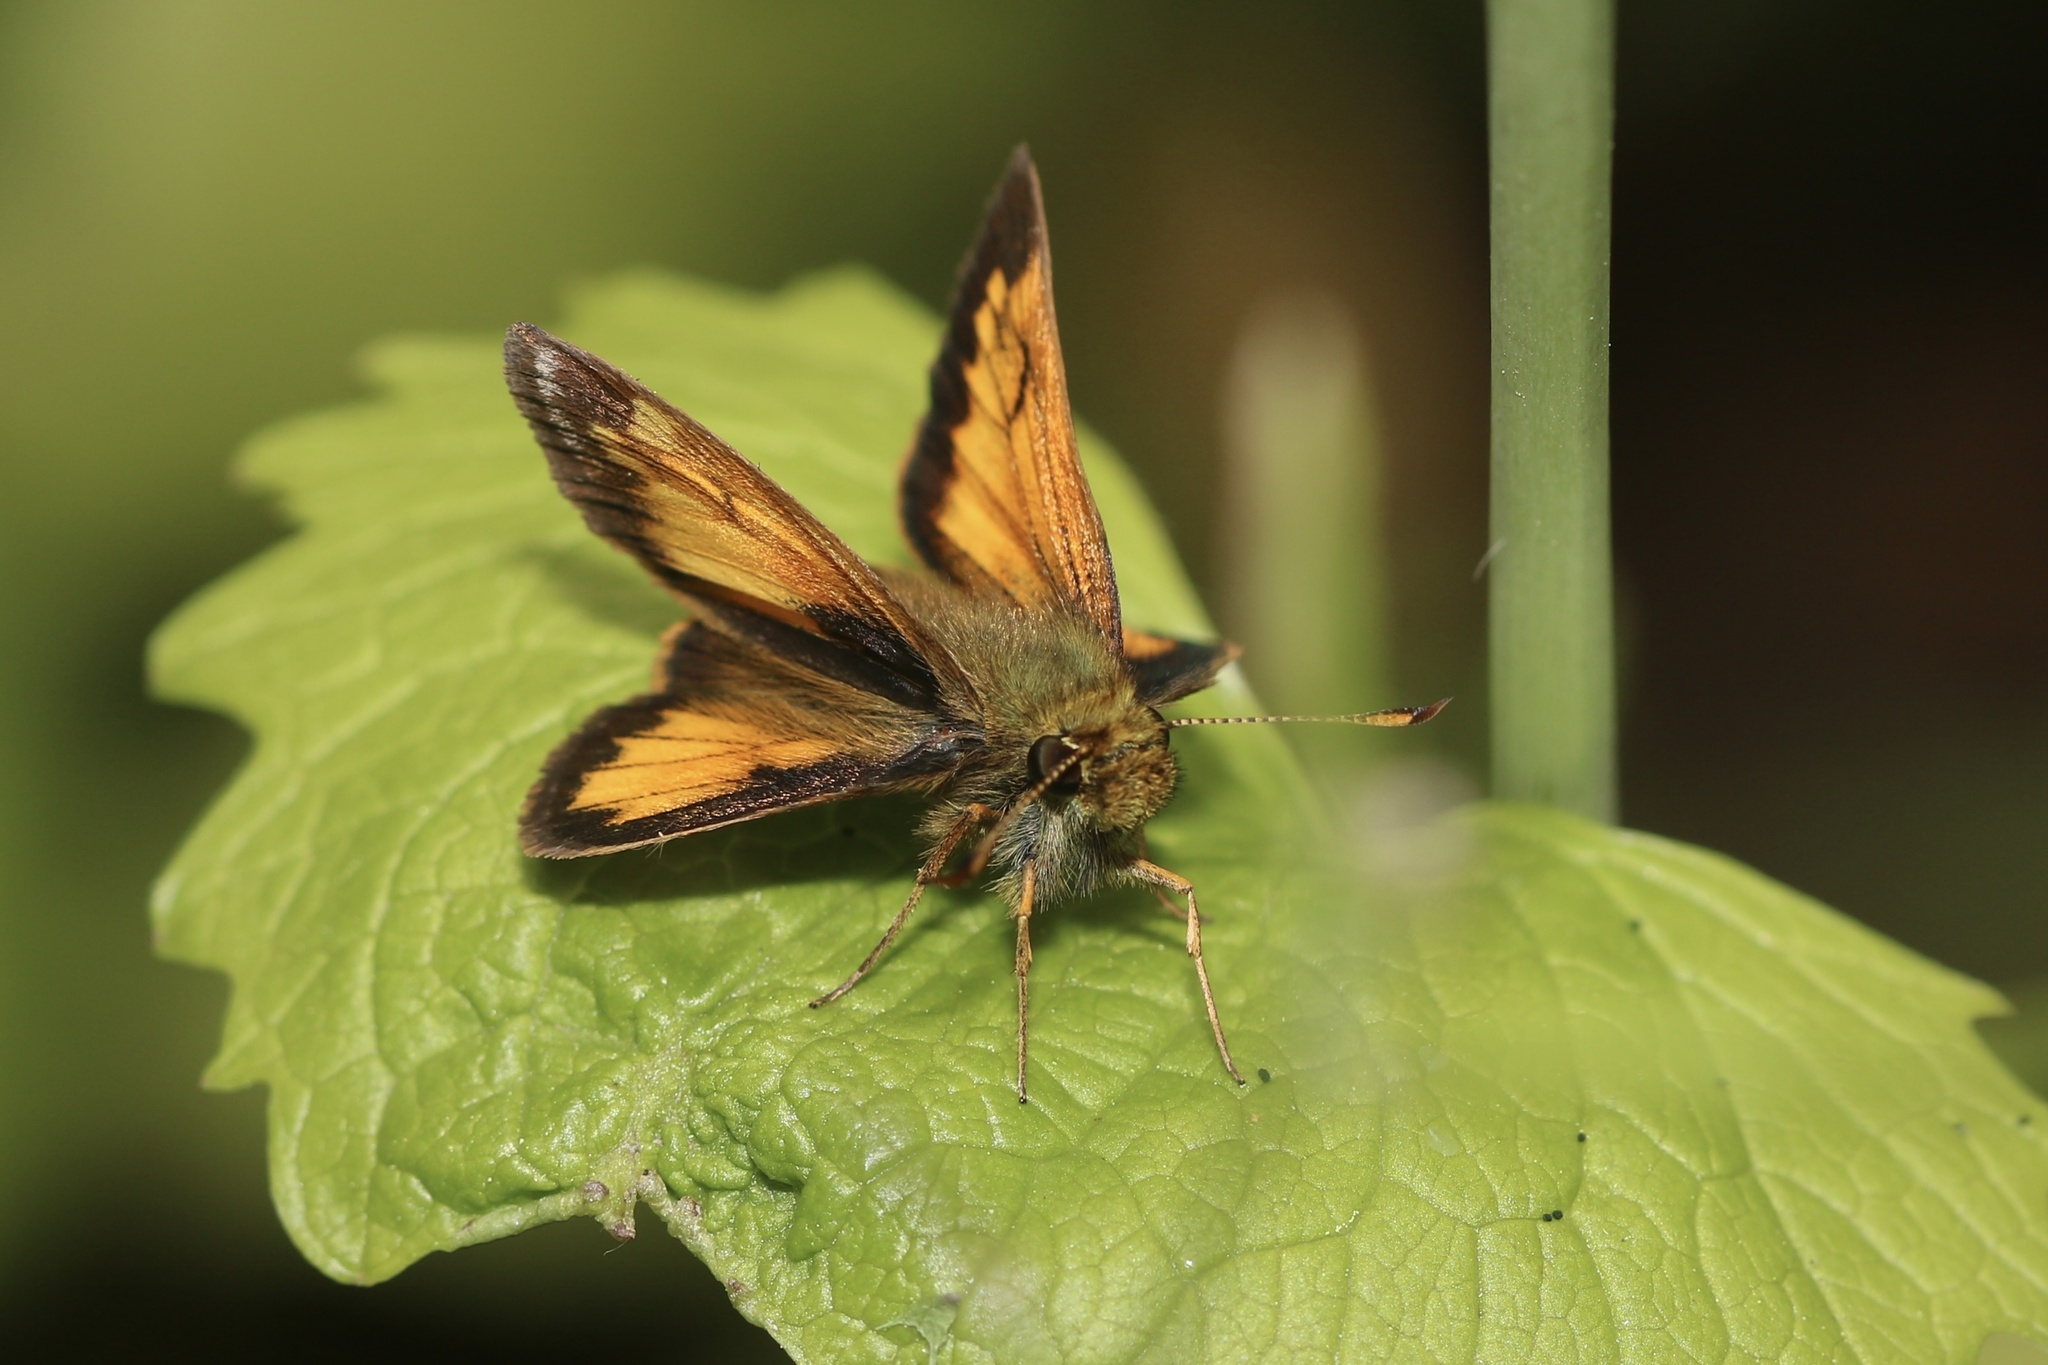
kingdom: Animalia
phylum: Arthropoda
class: Insecta
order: Lepidoptera
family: Hesperiidae
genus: Lon
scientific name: Lon hobomok
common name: Hobomok skipper
